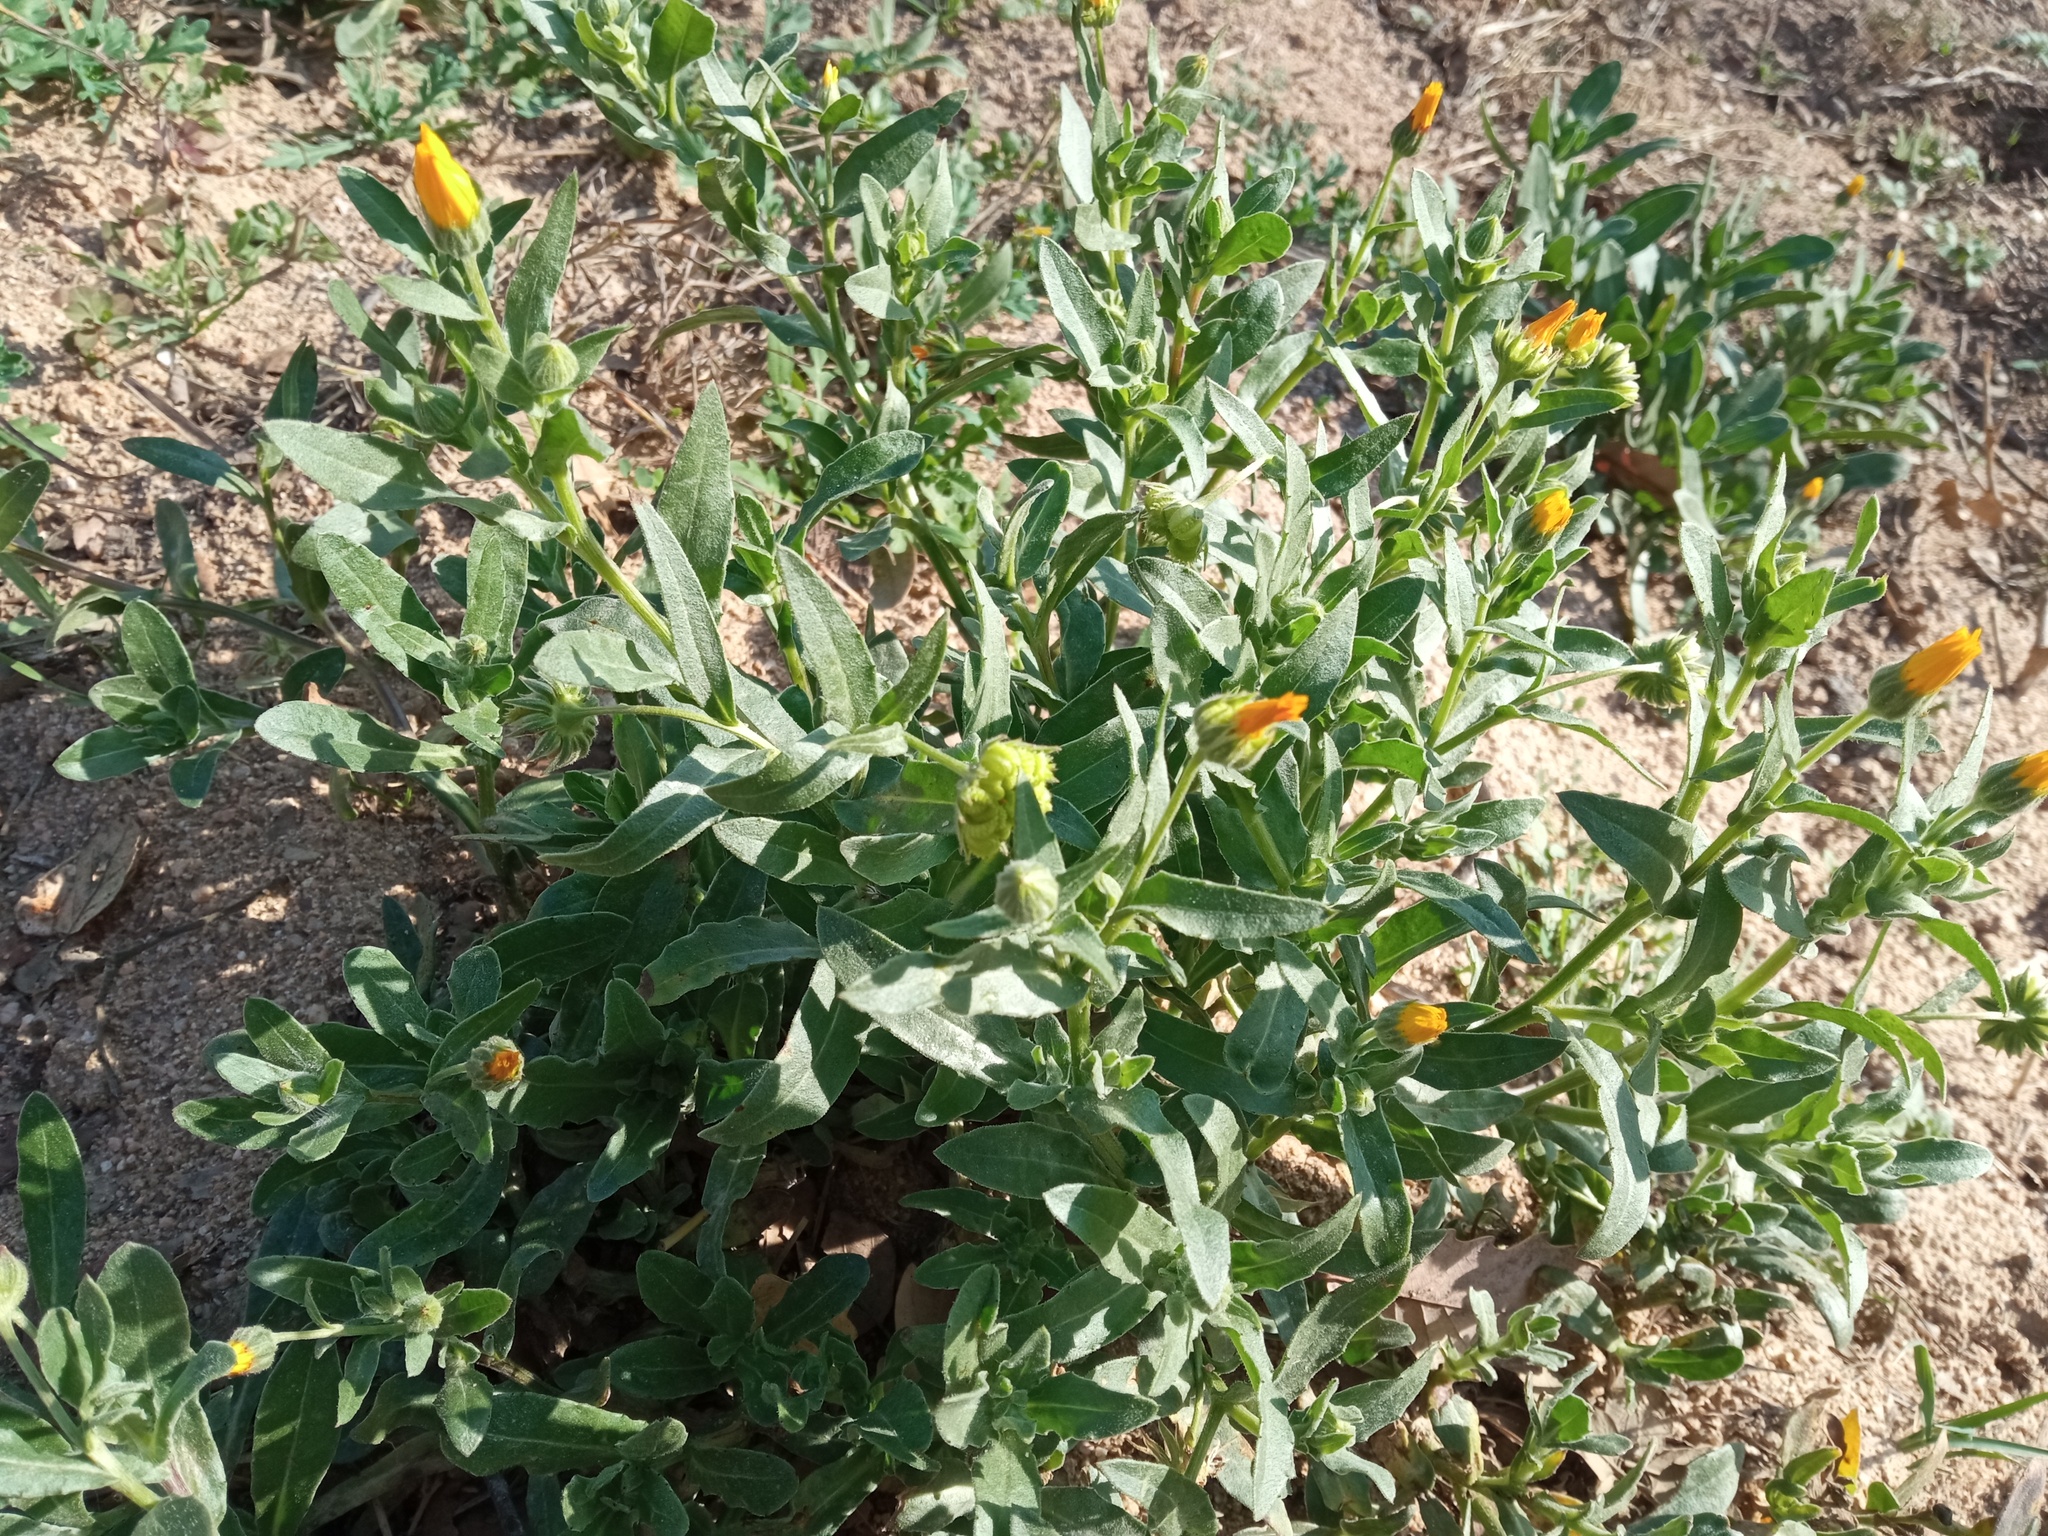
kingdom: Plantae
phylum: Tracheophyta
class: Magnoliopsida
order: Asterales
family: Asteraceae
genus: Calendula
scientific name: Calendula arvensis
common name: Field marigold
